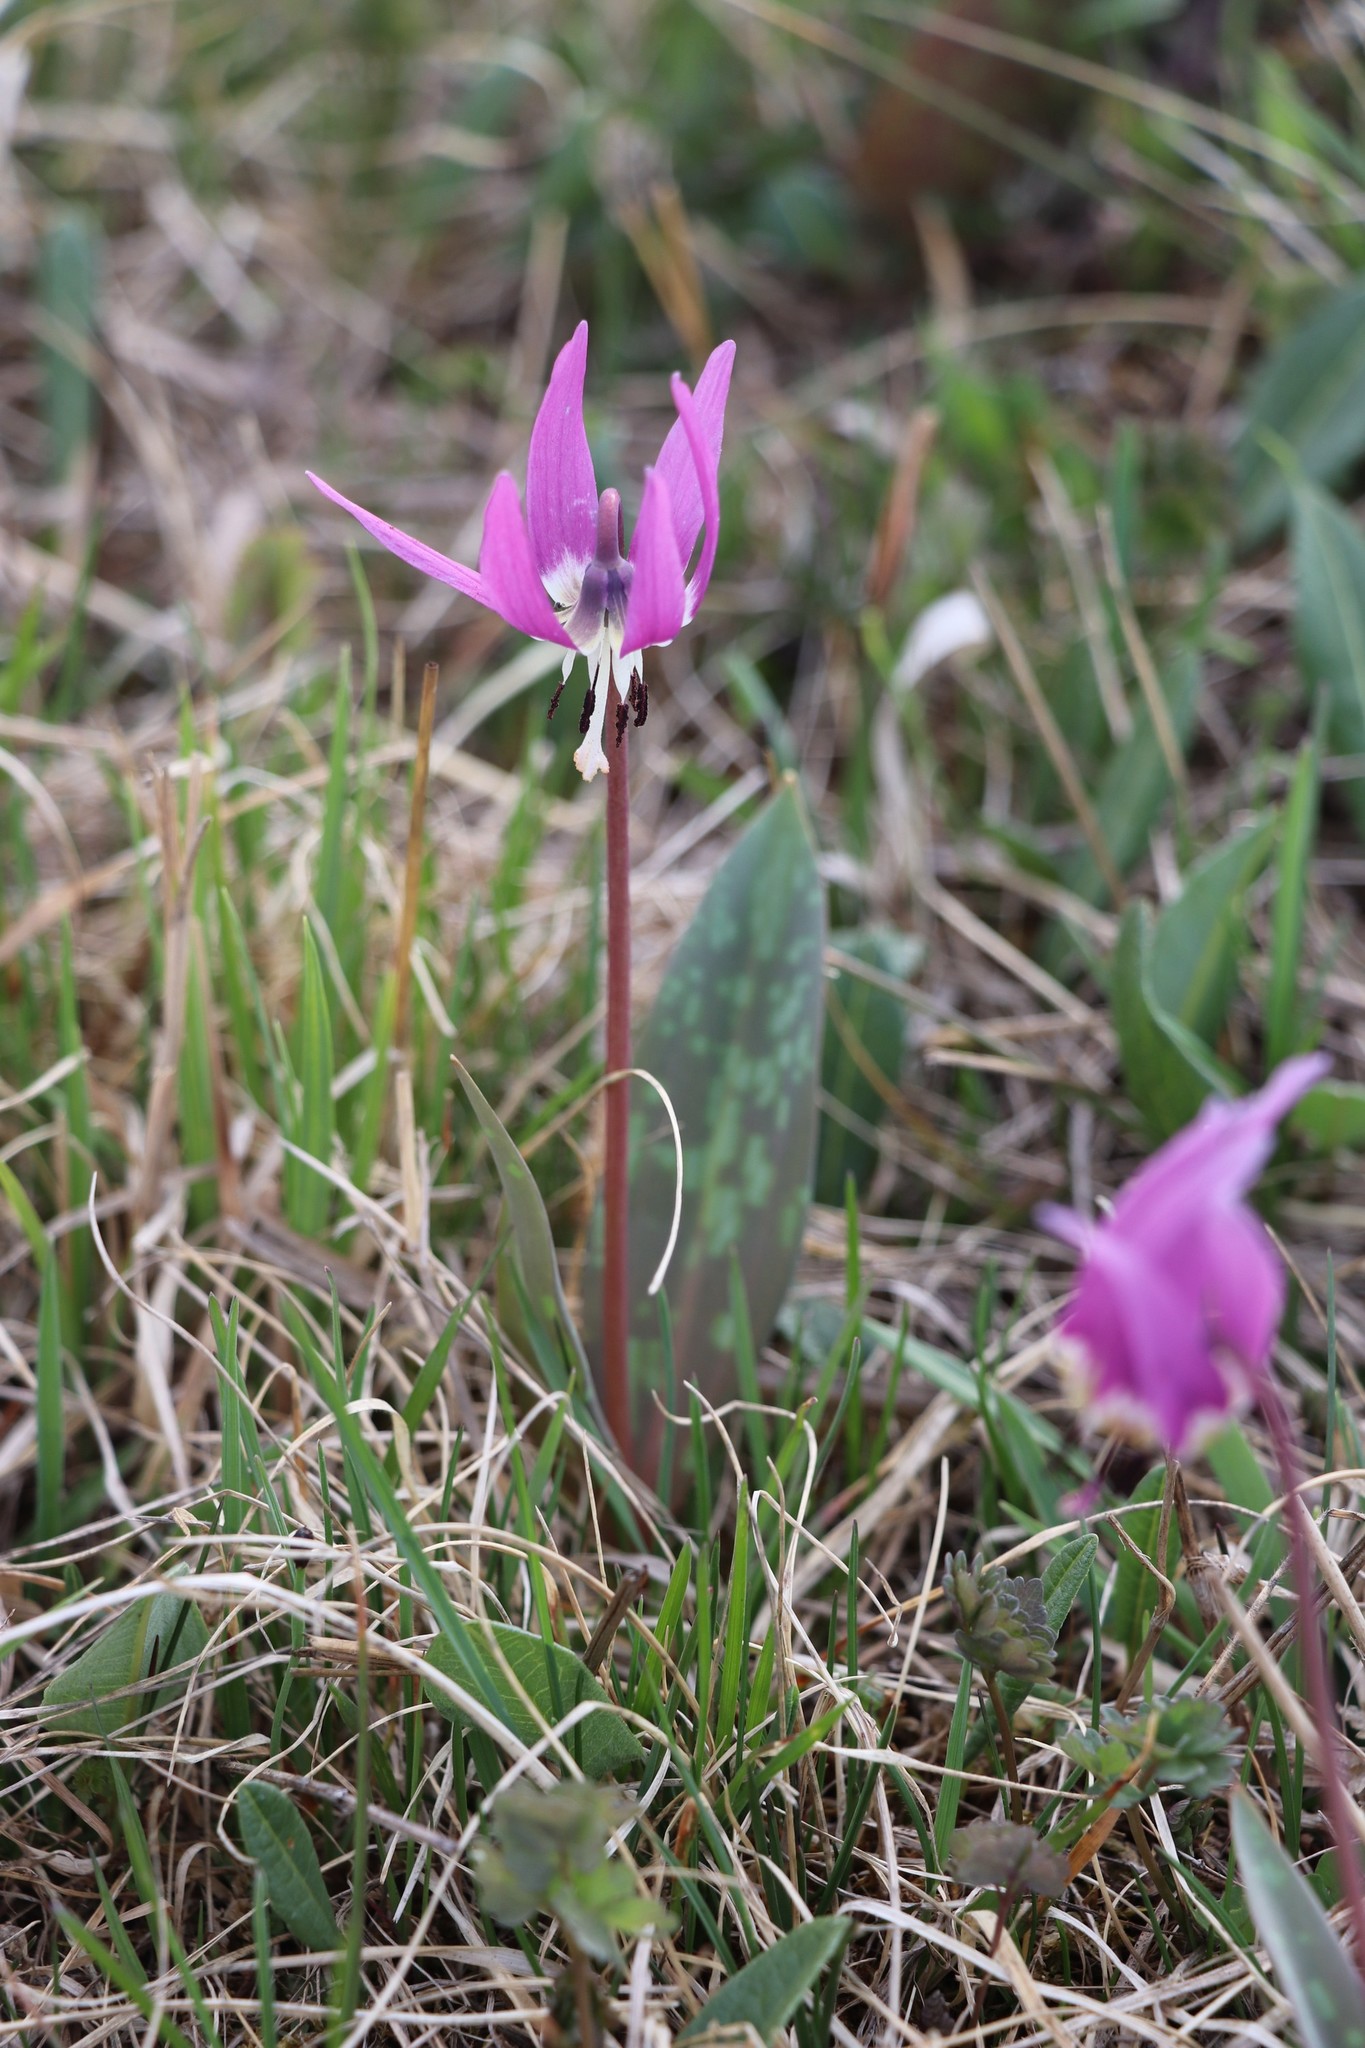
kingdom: Plantae
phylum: Tracheophyta
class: Liliopsida
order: Liliales
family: Liliaceae
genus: Erythronium
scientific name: Erythronium sulevii
